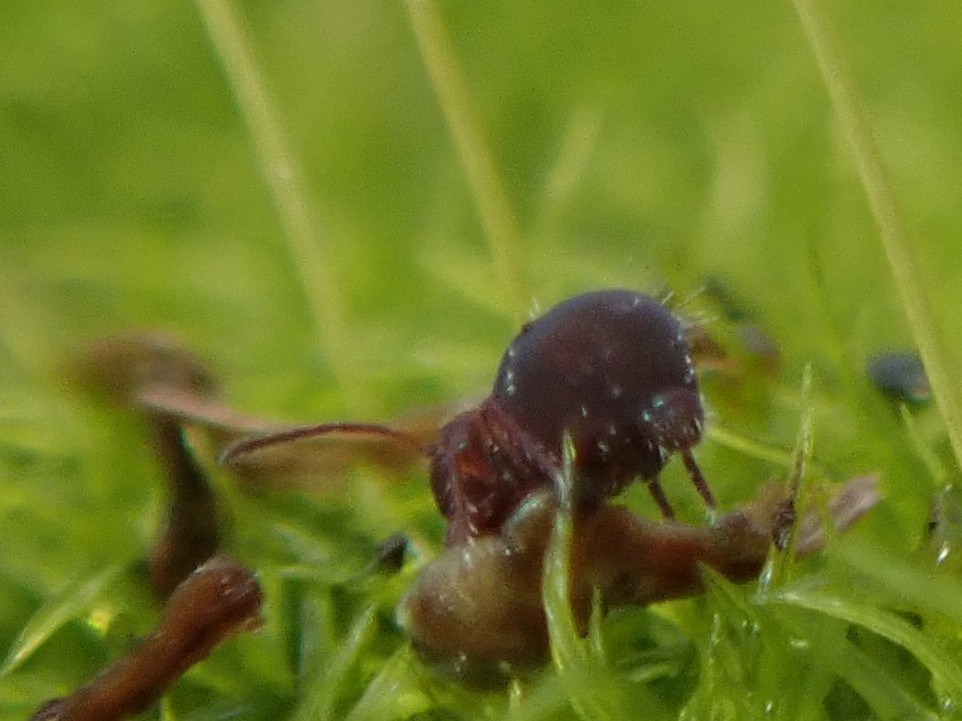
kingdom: Animalia
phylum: Arthropoda
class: Collembola
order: Symphypleona
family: Dicyrtomidae
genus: Dicyrtoma
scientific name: Dicyrtoma fusca
